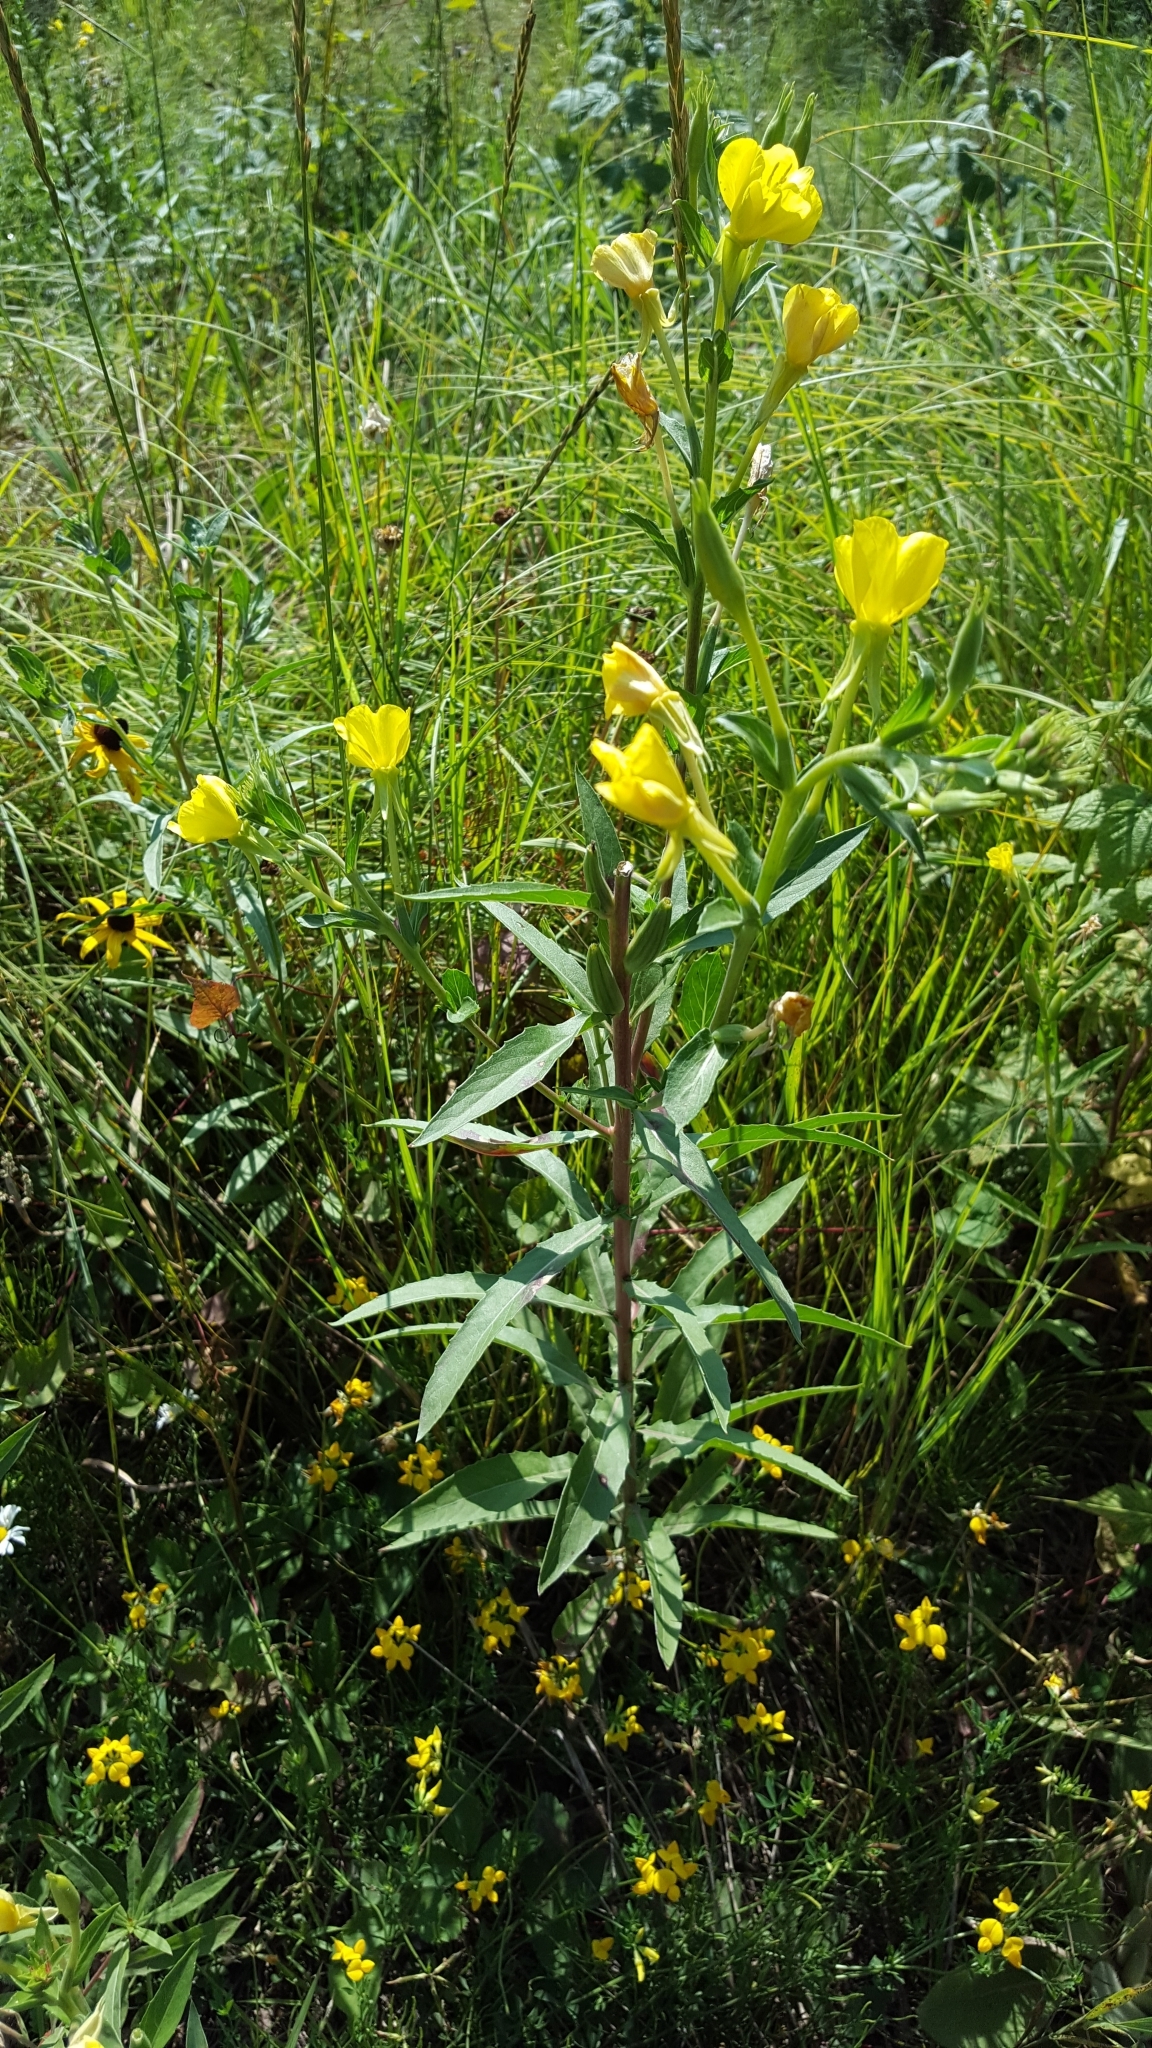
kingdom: Plantae
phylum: Tracheophyta
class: Magnoliopsida
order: Myrtales
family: Onagraceae
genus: Oenothera
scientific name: Oenothera parviflora
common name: Least evening-primrose
